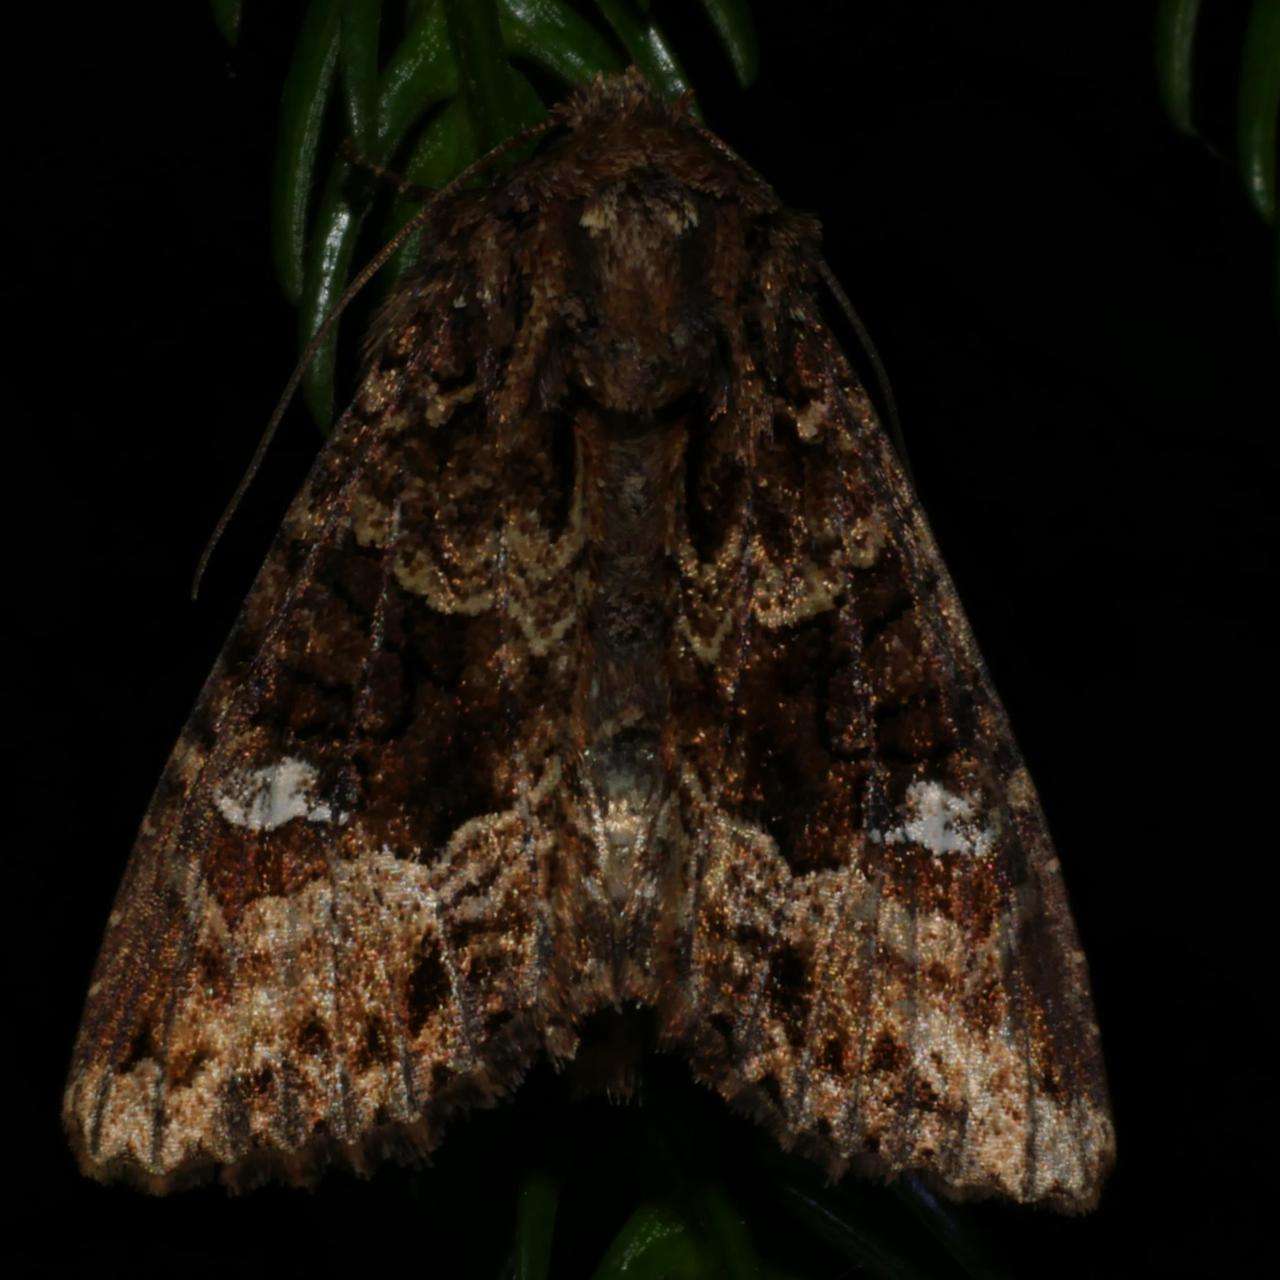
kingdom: Animalia
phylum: Arthropoda
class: Insecta
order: Lepidoptera
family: Noctuidae
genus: Neumichtis
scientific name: Neumichtis saliaris
